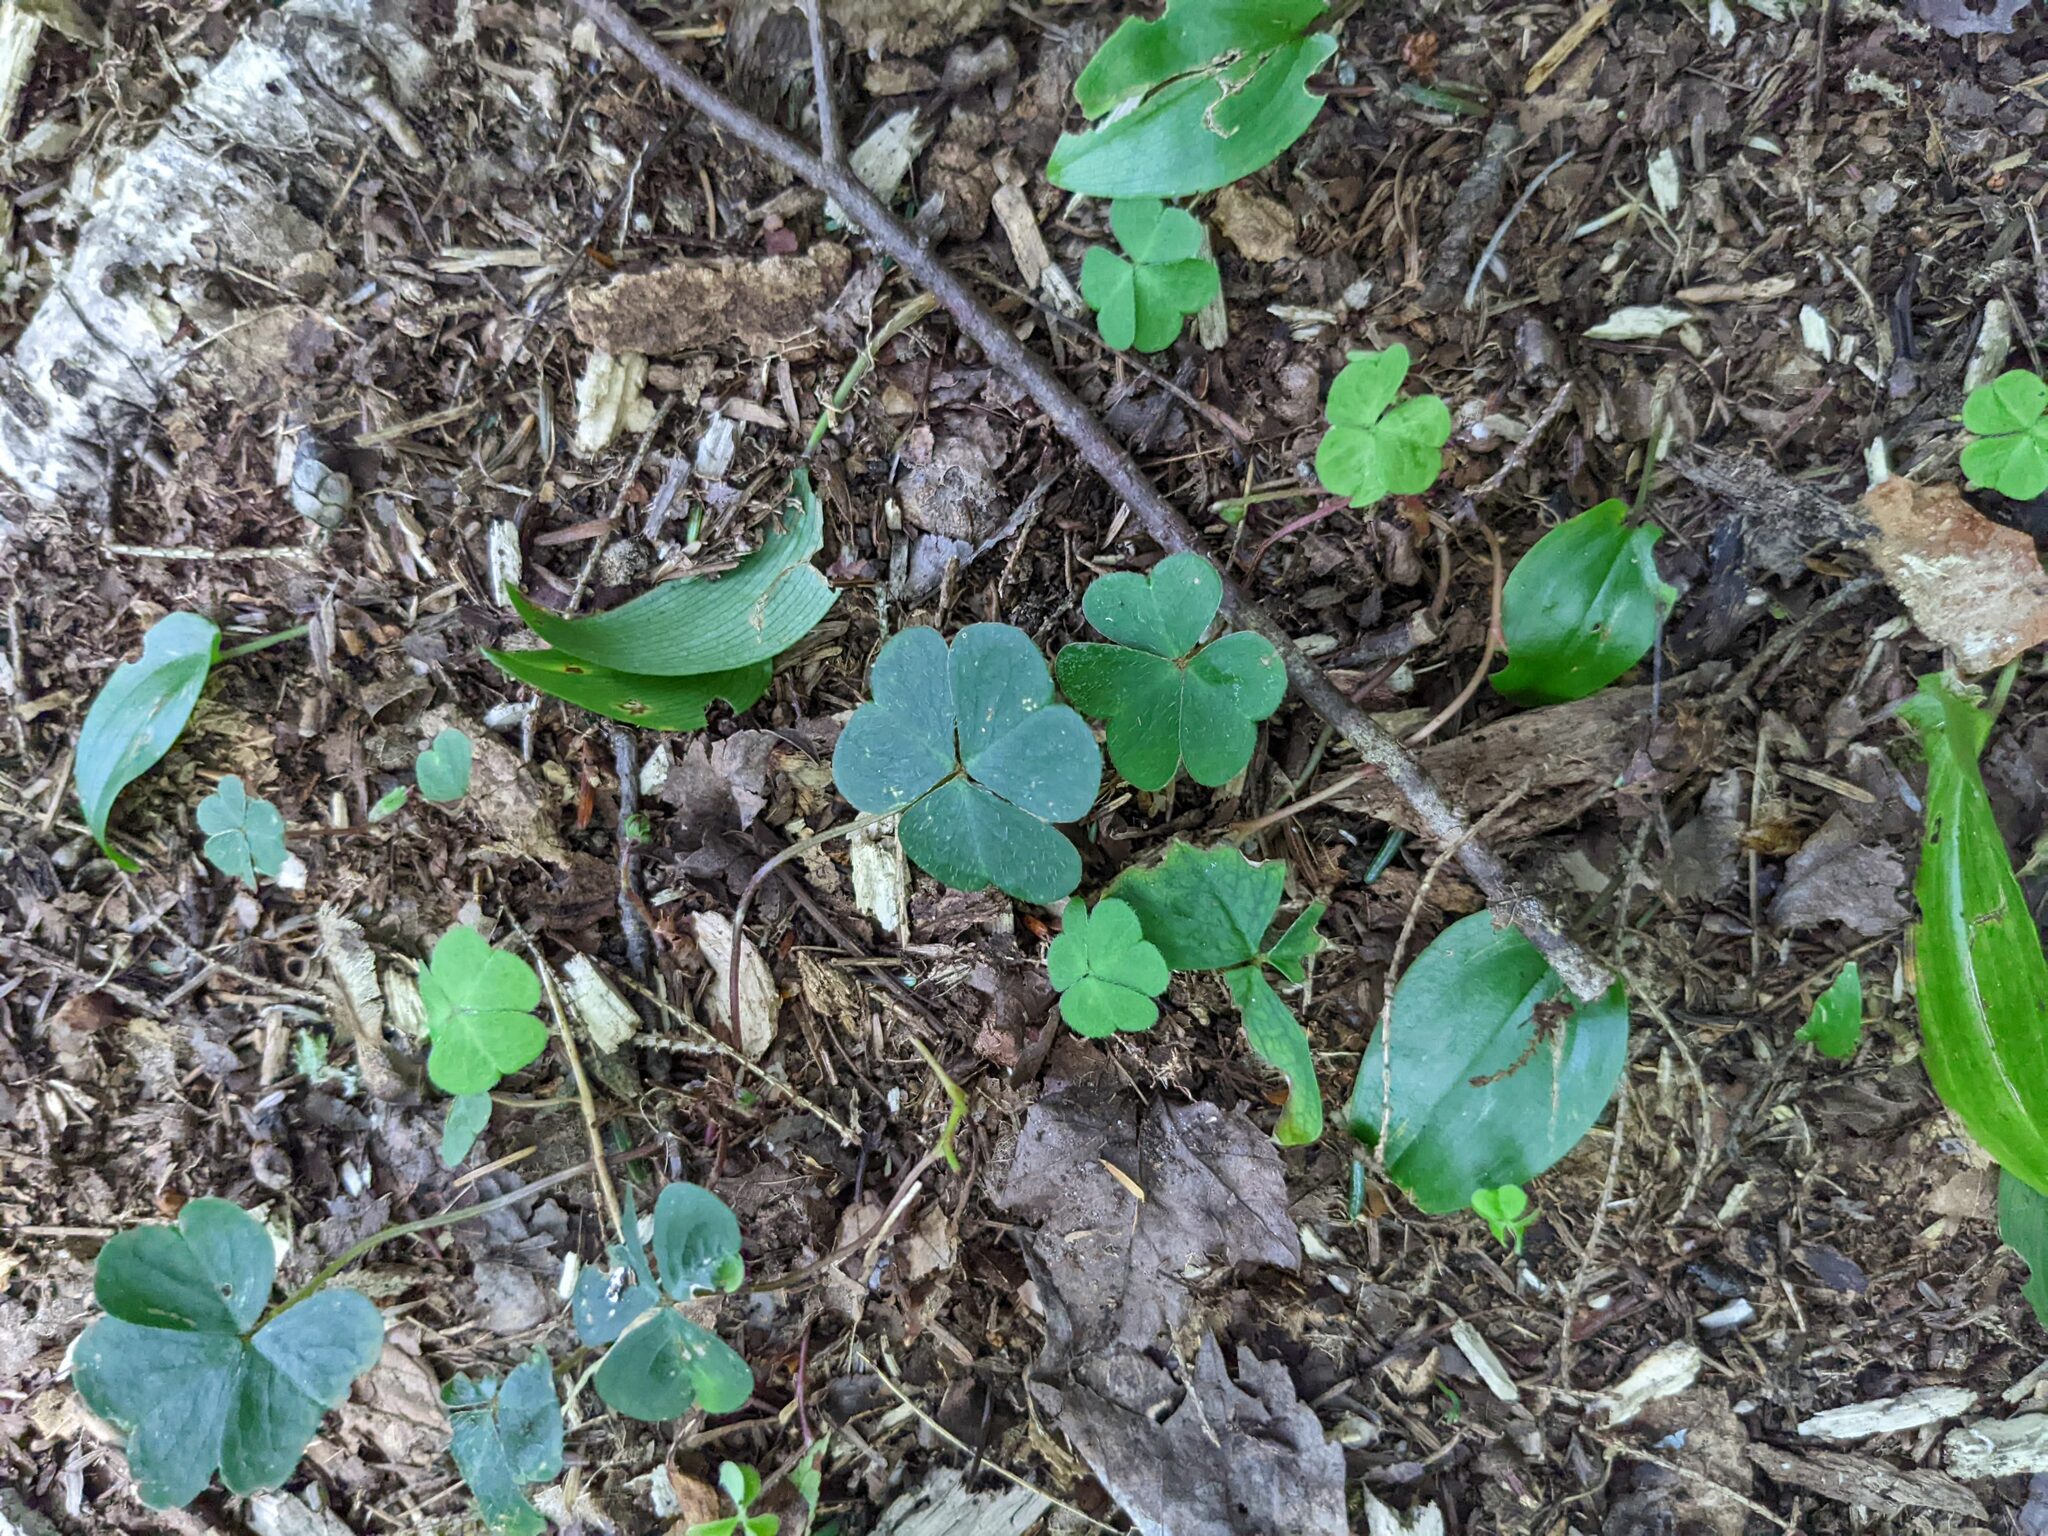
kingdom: Plantae
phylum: Tracheophyta
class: Liliopsida
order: Asparagales
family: Asparagaceae
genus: Maianthemum
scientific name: Maianthemum canadense
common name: False lily-of-the-valley
